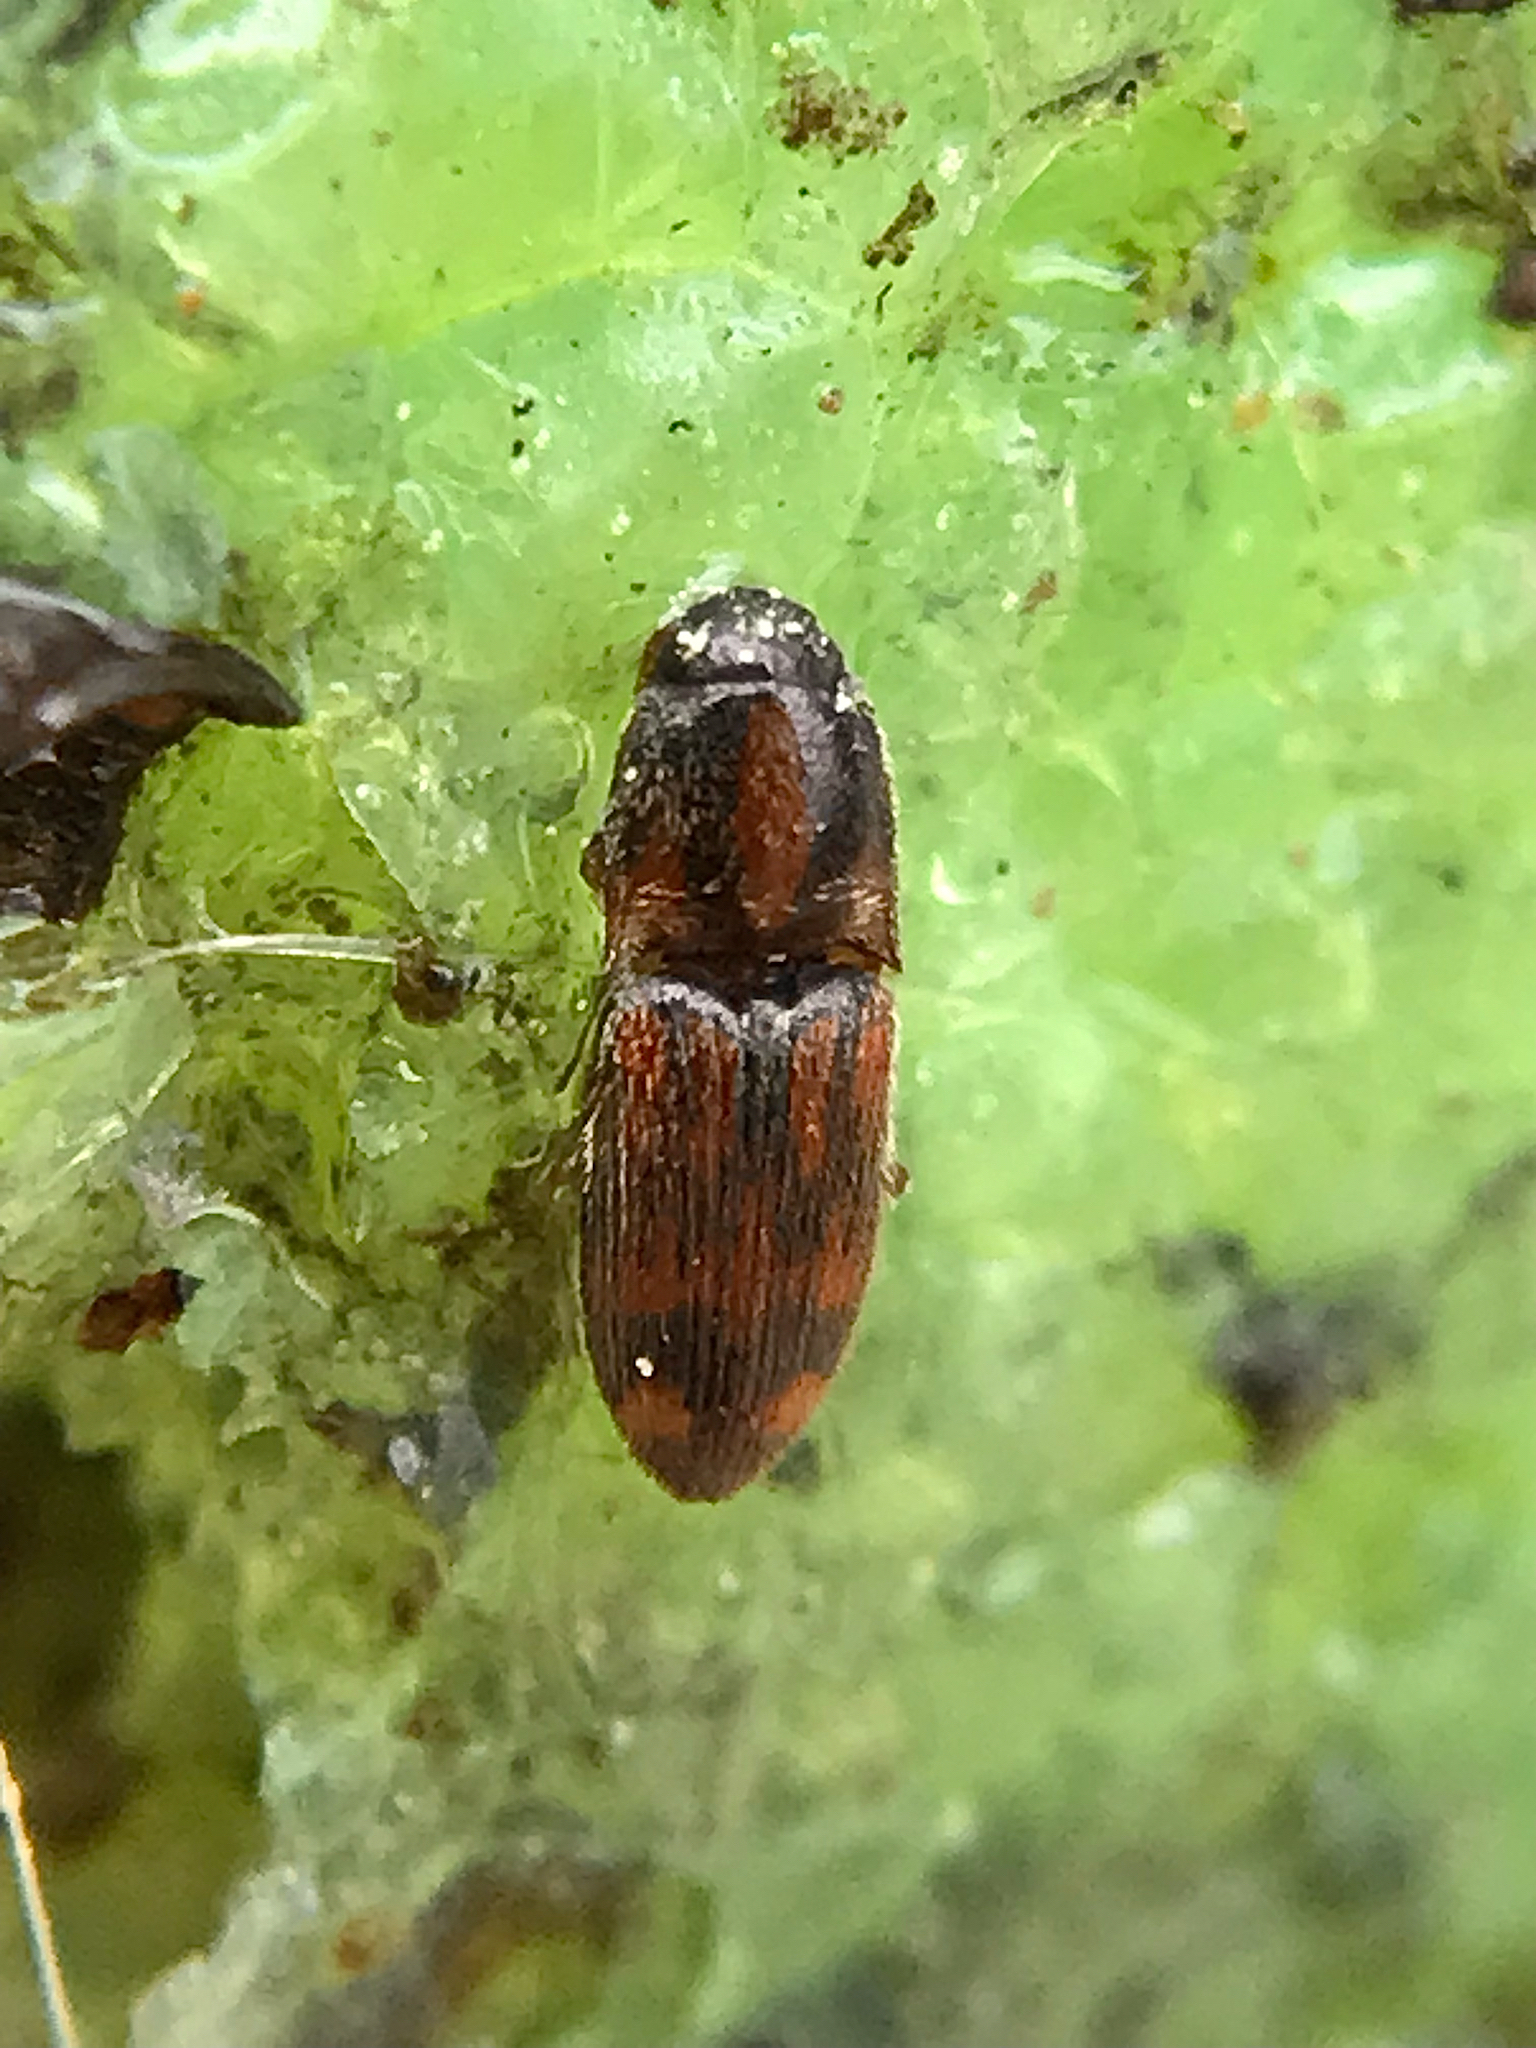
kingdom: Animalia
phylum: Arthropoda
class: Insecta
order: Coleoptera
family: Elateridae
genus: Monocrepidius
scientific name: Monocrepidius bellus
